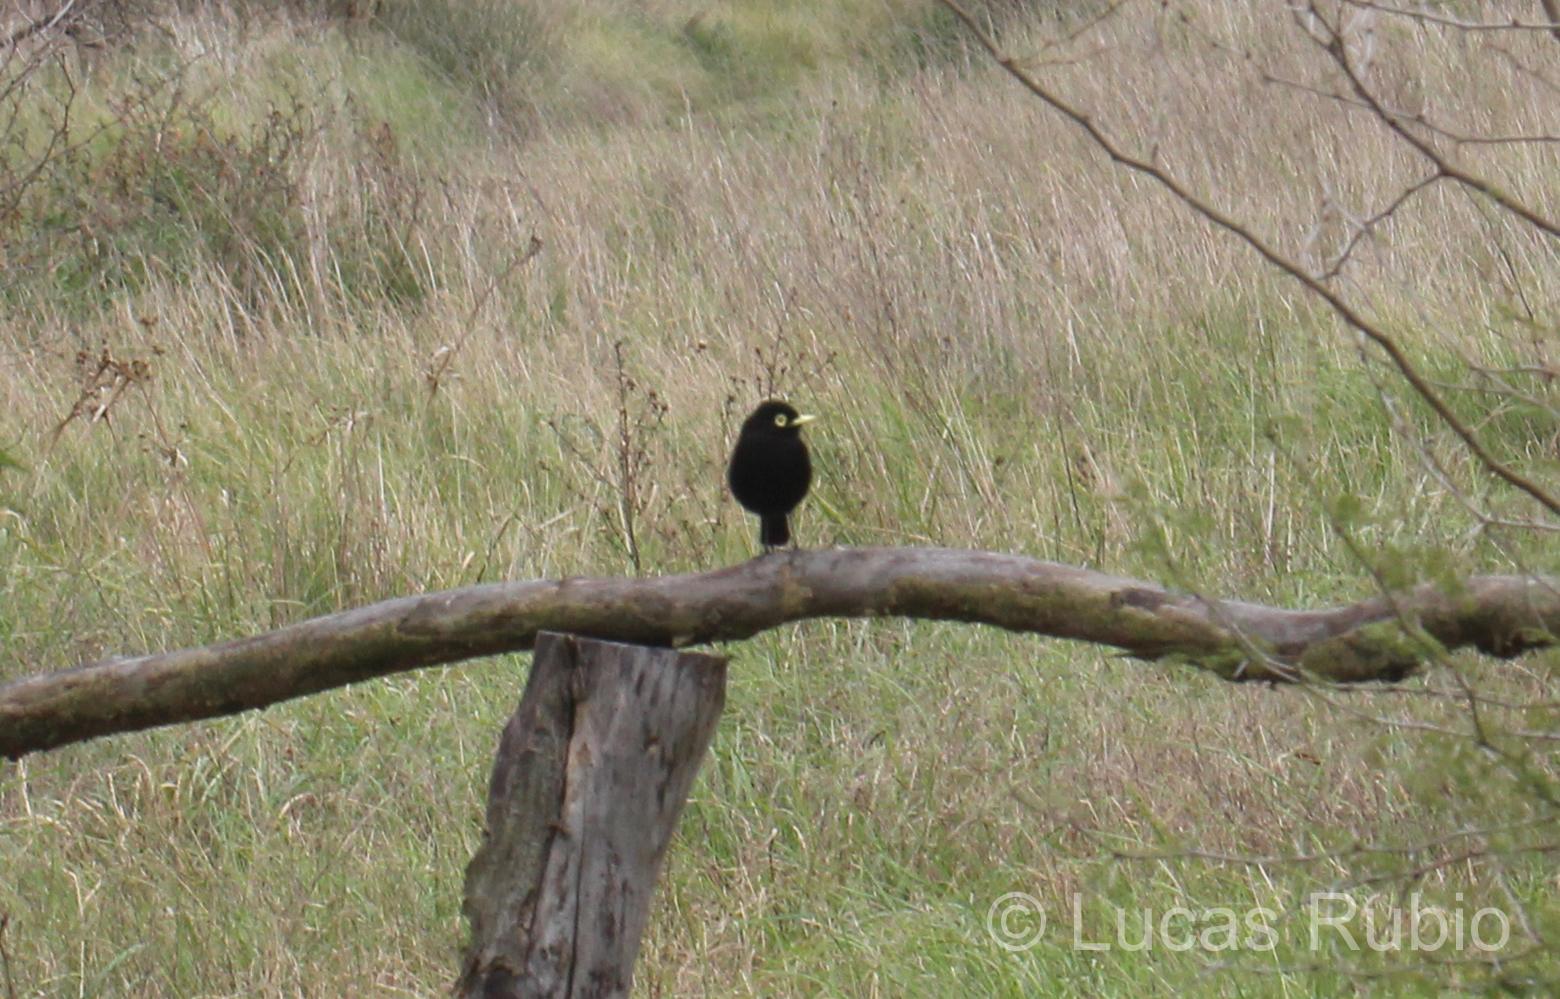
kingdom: Animalia
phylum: Chordata
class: Aves
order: Passeriformes
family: Tyrannidae
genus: Hymenops
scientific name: Hymenops perspicillatus
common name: Spectacled tyrant
